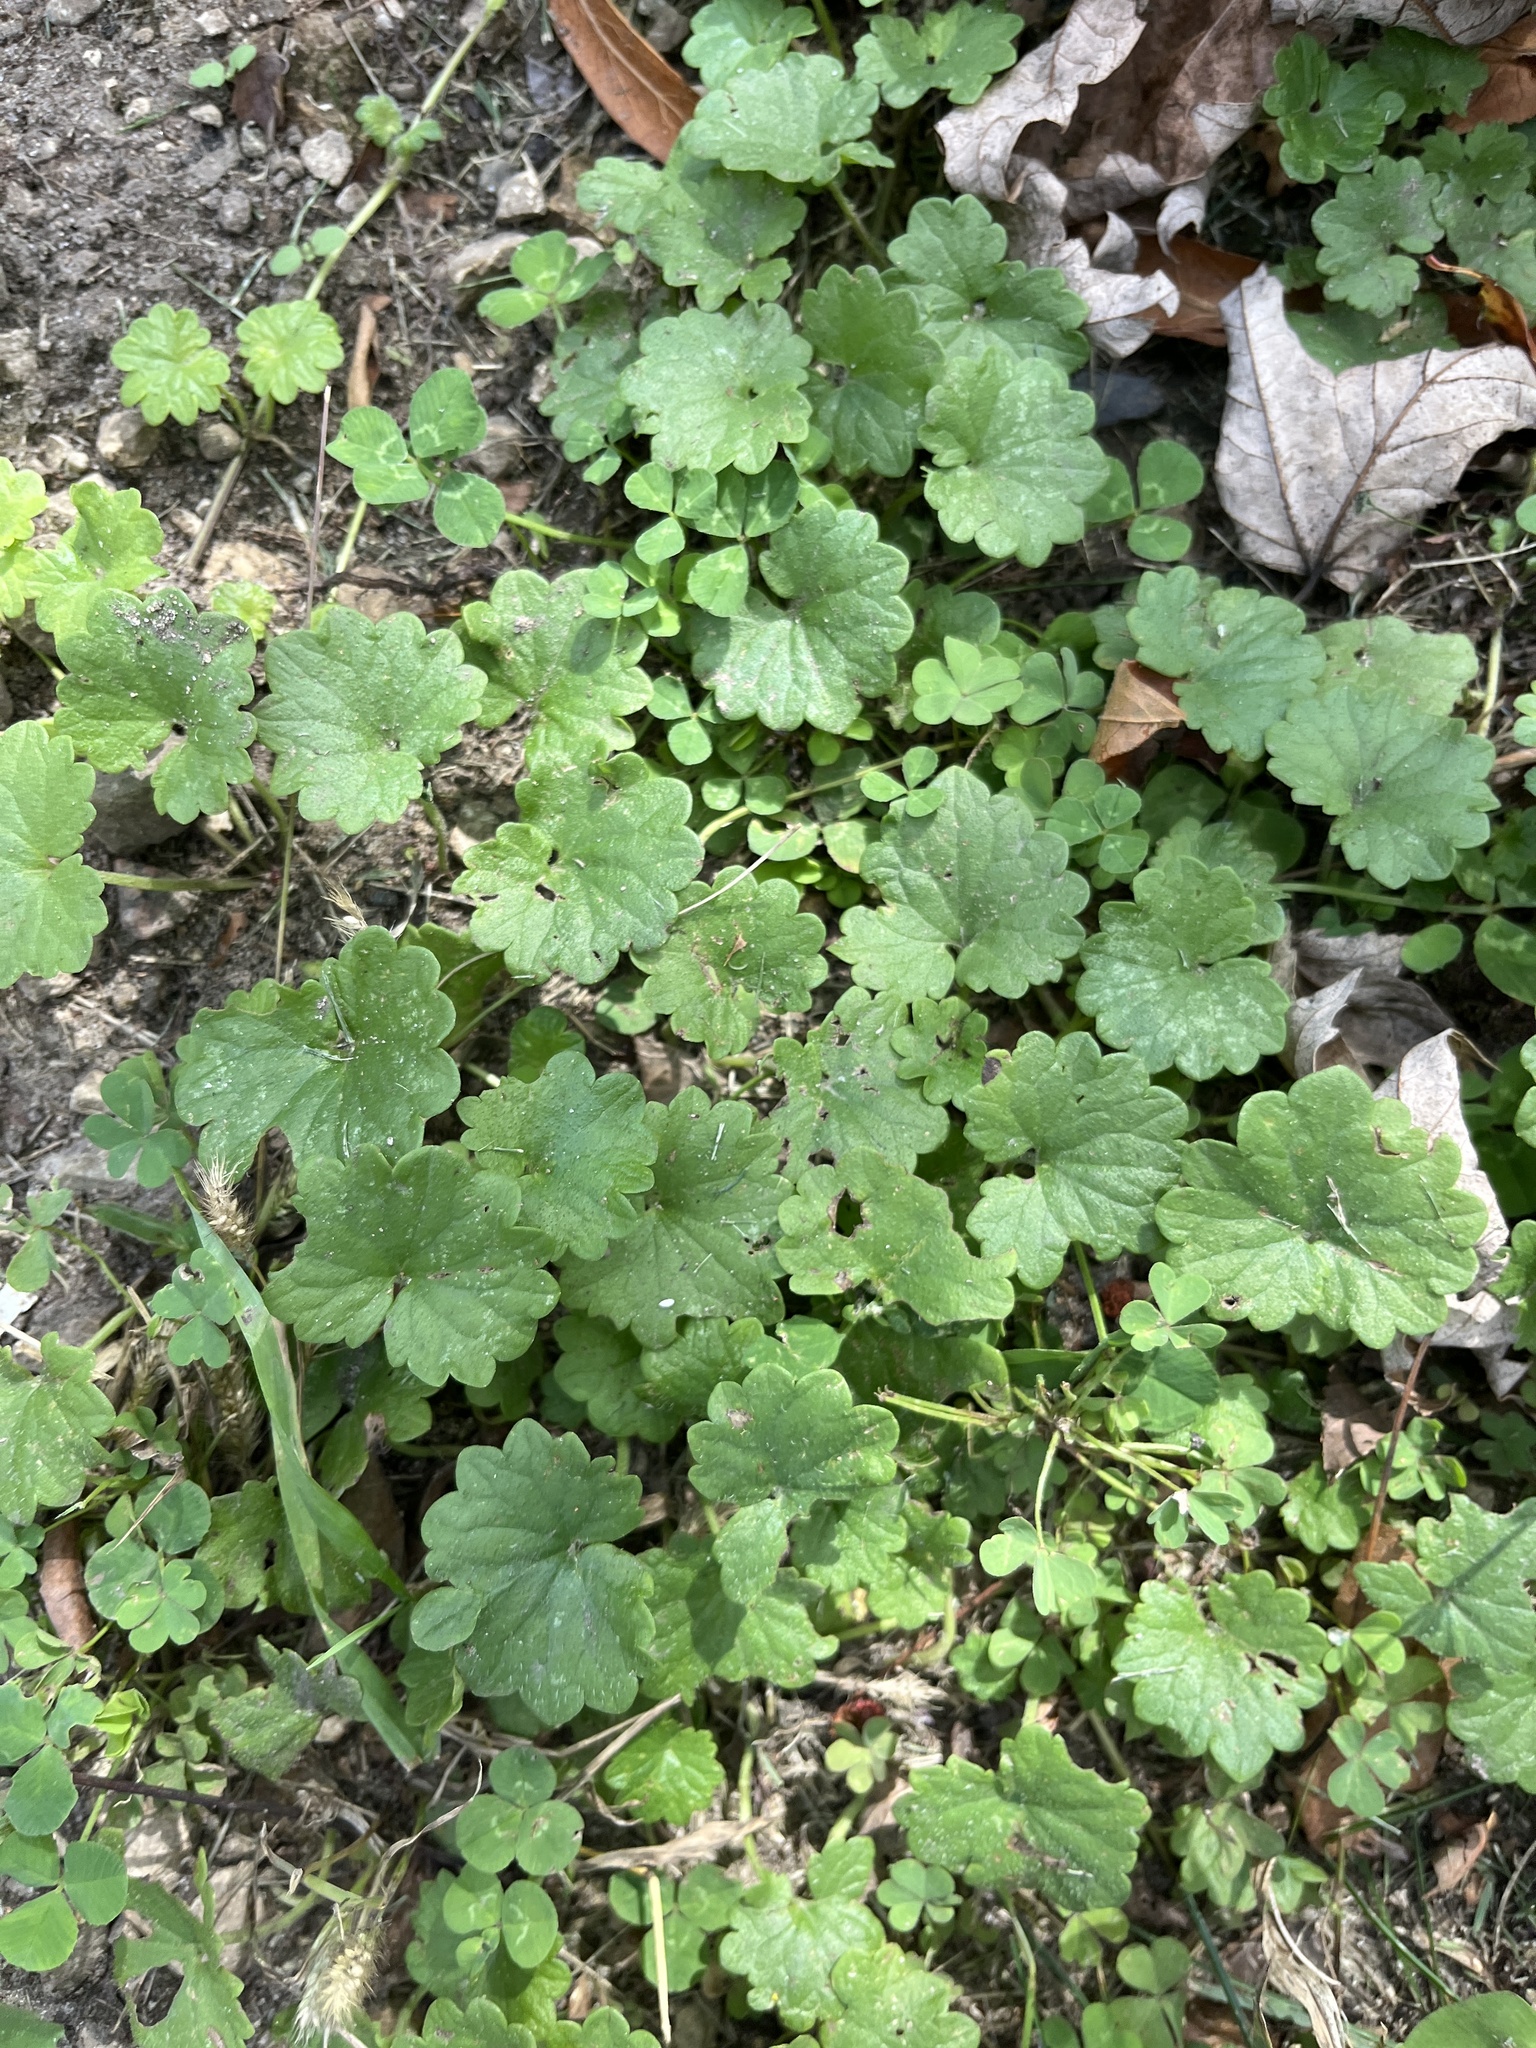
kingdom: Plantae
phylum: Tracheophyta
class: Magnoliopsida
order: Lamiales
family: Lamiaceae
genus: Glechoma
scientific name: Glechoma hederacea
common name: Ground ivy
